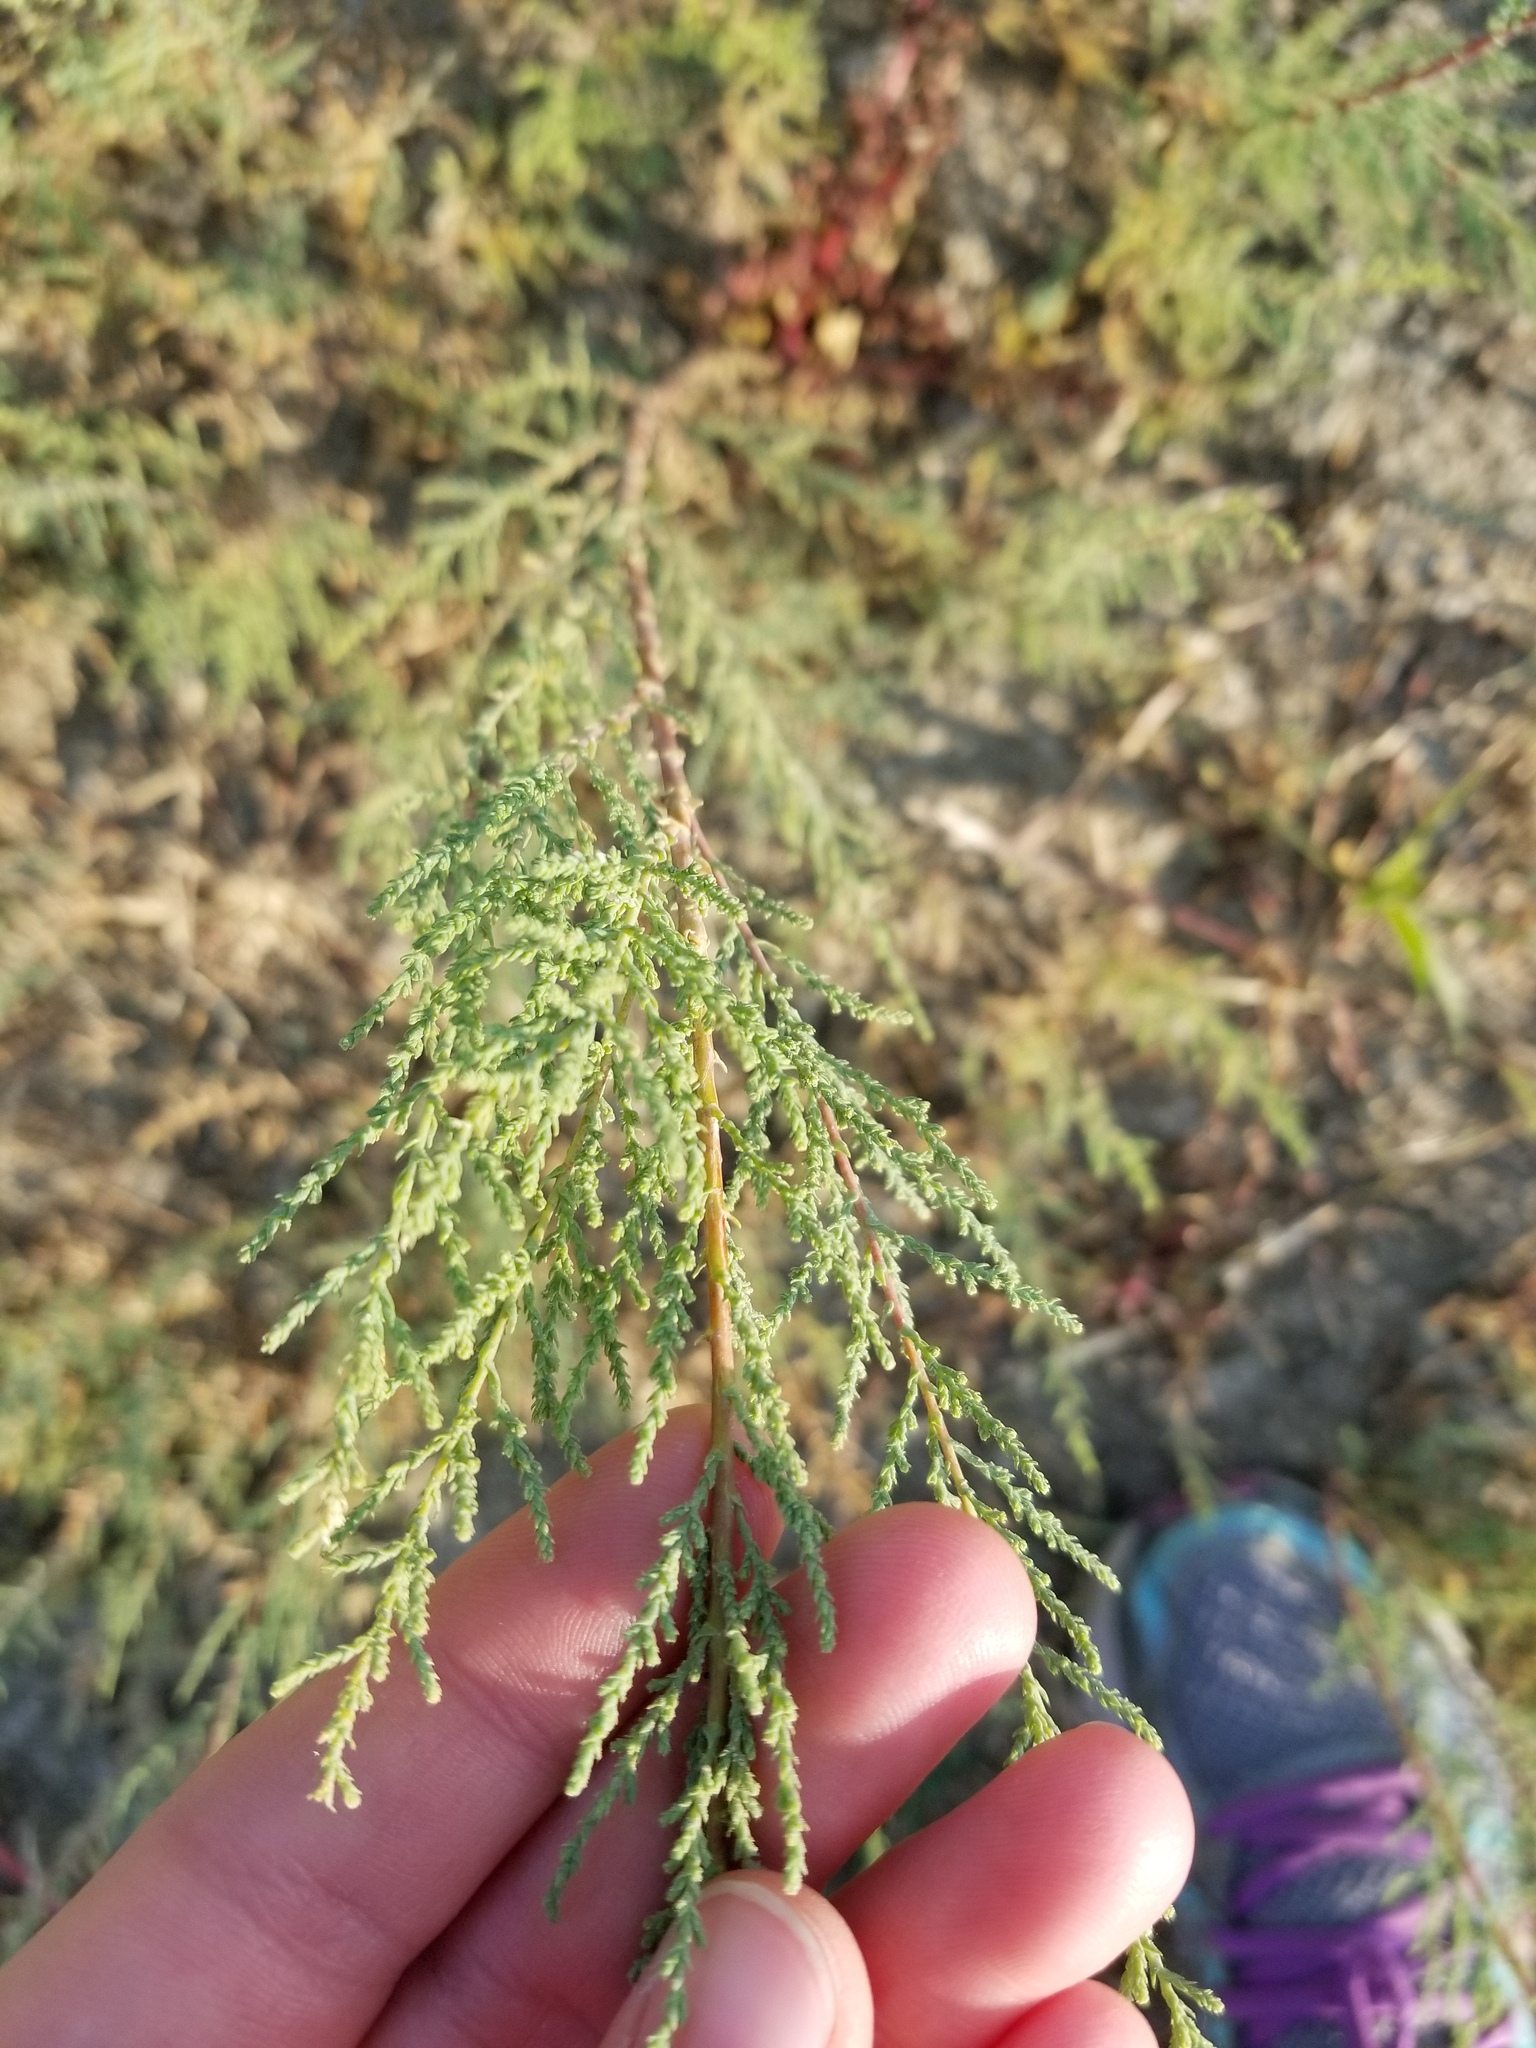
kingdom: Plantae
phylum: Tracheophyta
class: Magnoliopsida
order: Caryophyllales
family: Tamaricaceae
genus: Tamarix
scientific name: Tamarix
